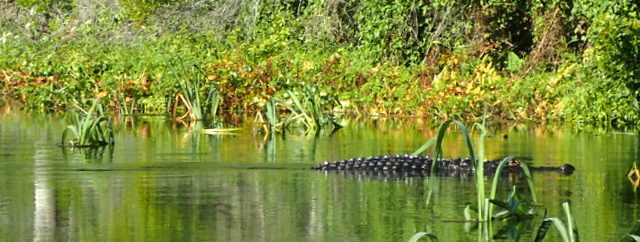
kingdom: Animalia
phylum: Chordata
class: Crocodylia
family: Alligatoridae
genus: Alligator
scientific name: Alligator mississippiensis
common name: American alligator
